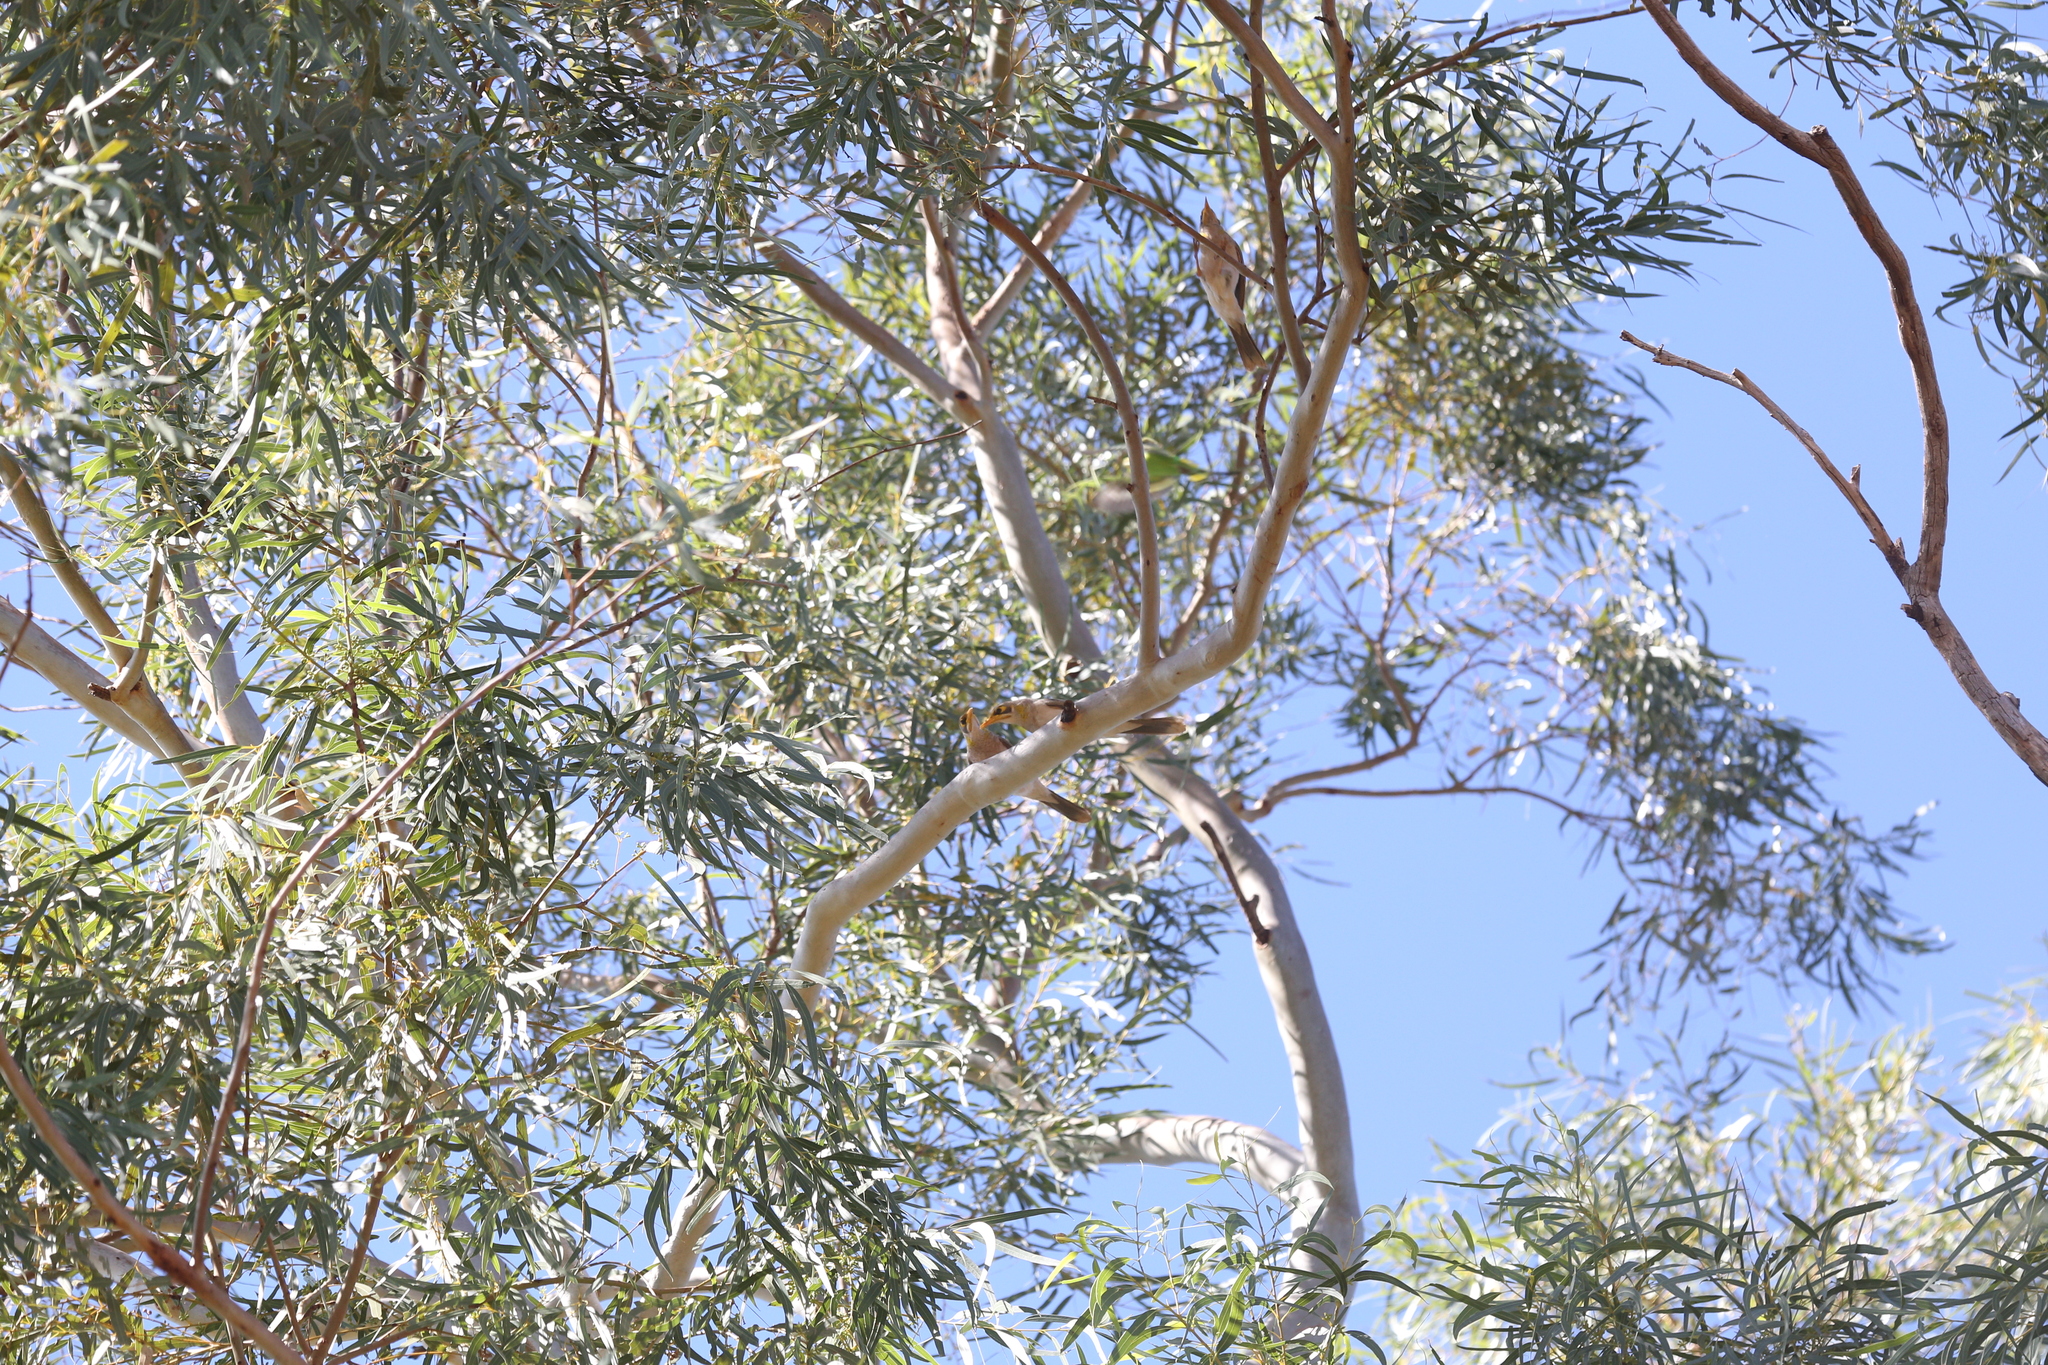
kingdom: Animalia
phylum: Chordata
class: Aves
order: Passeriformes
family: Meliphagidae
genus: Manorina
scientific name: Manorina flavigula
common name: Yellow-throated miner
